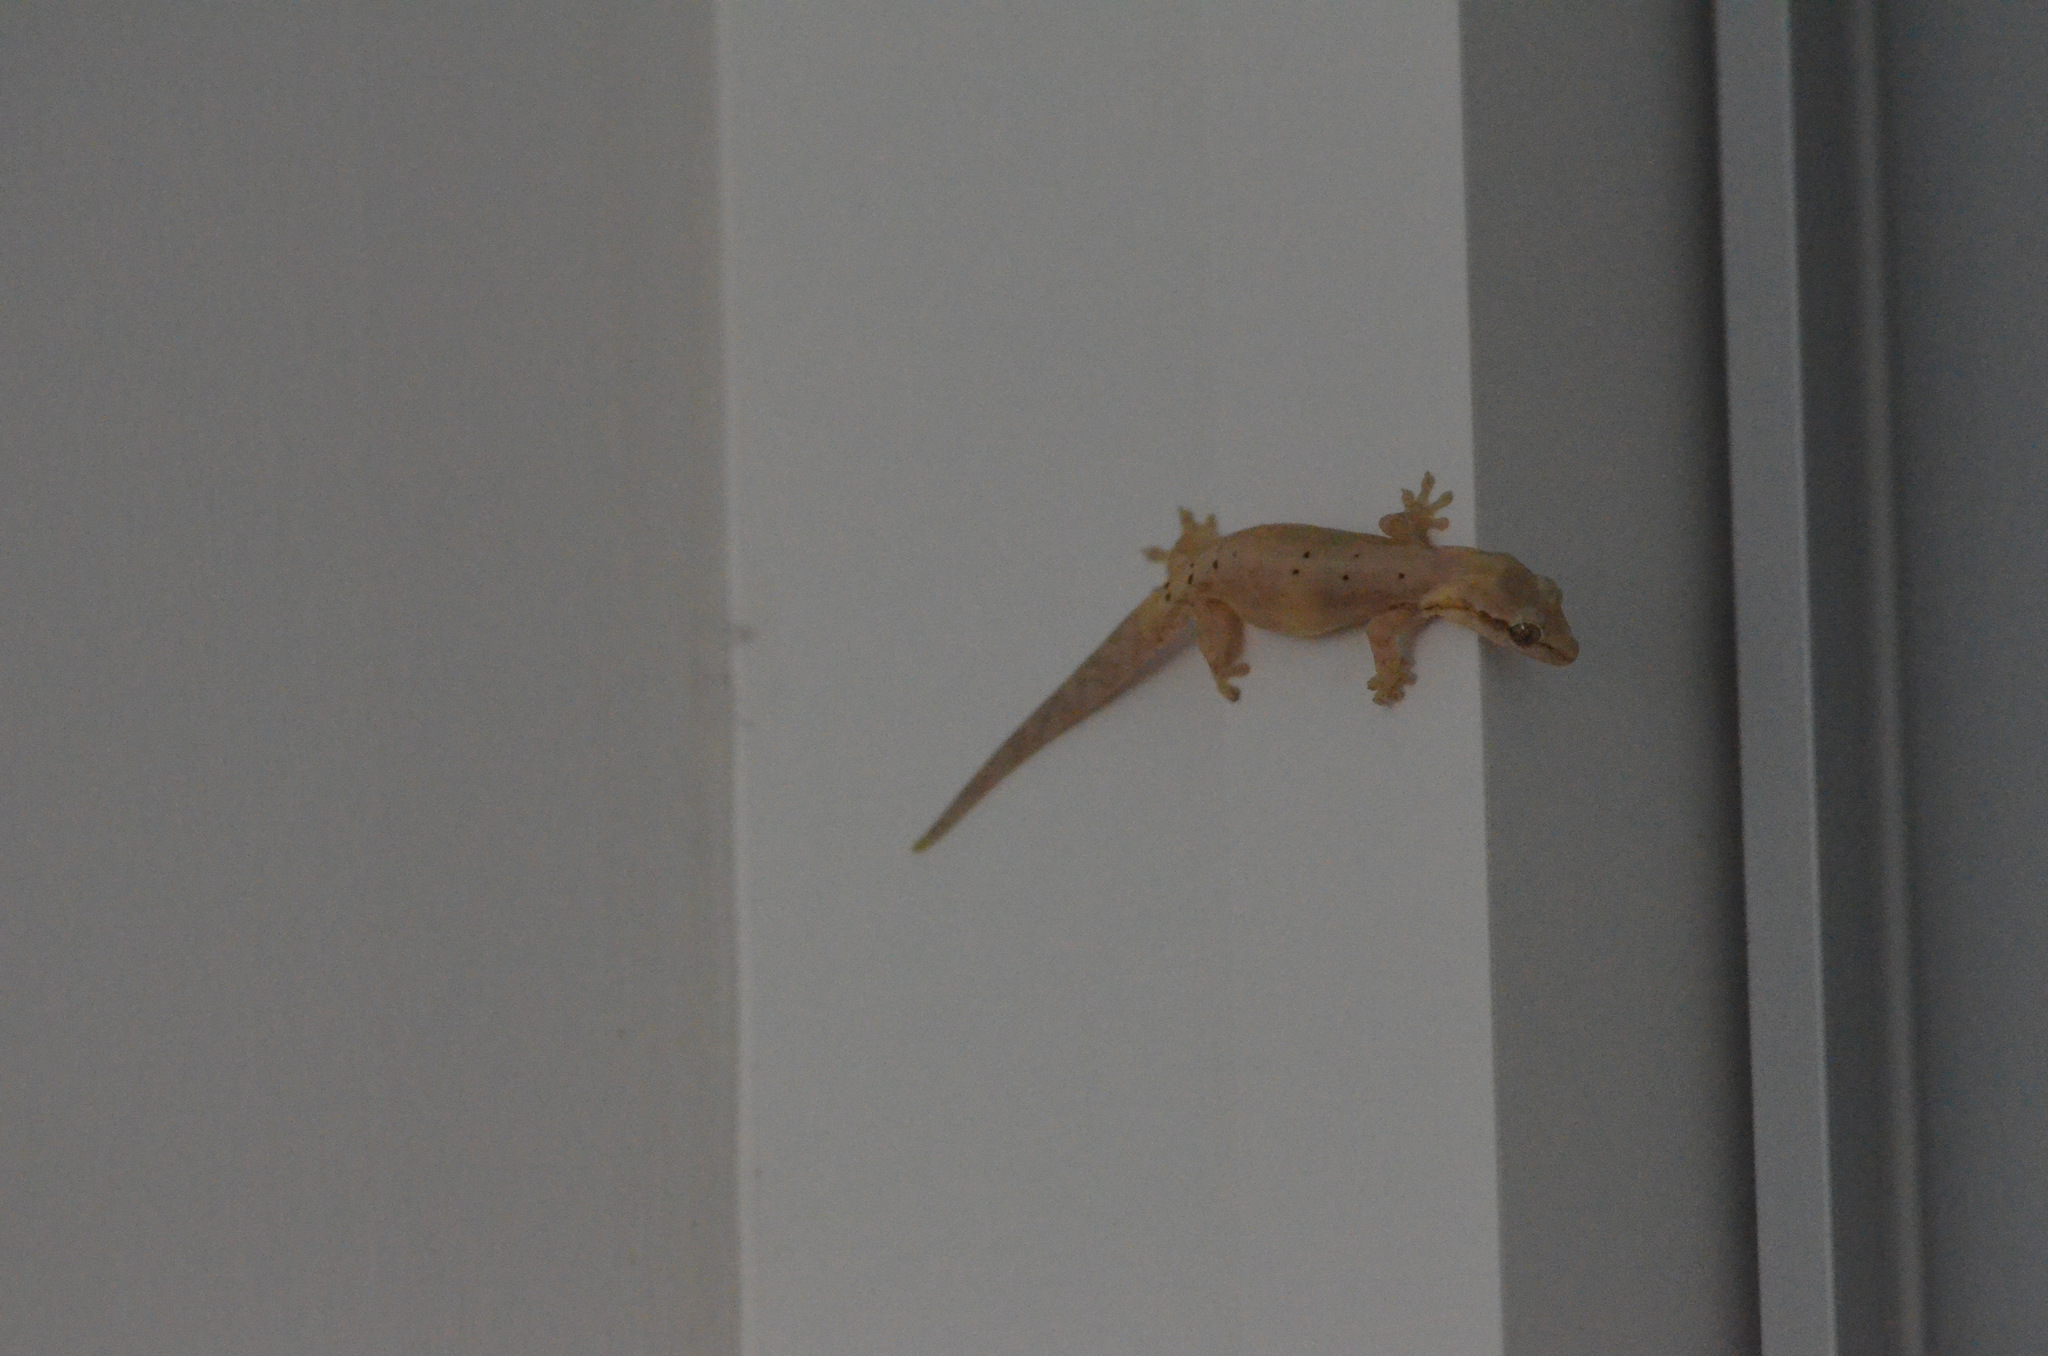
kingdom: Animalia
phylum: Chordata
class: Squamata
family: Gekkonidae
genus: Lepidodactylus
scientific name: Lepidodactylus lugubris
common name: Mourning gecko
